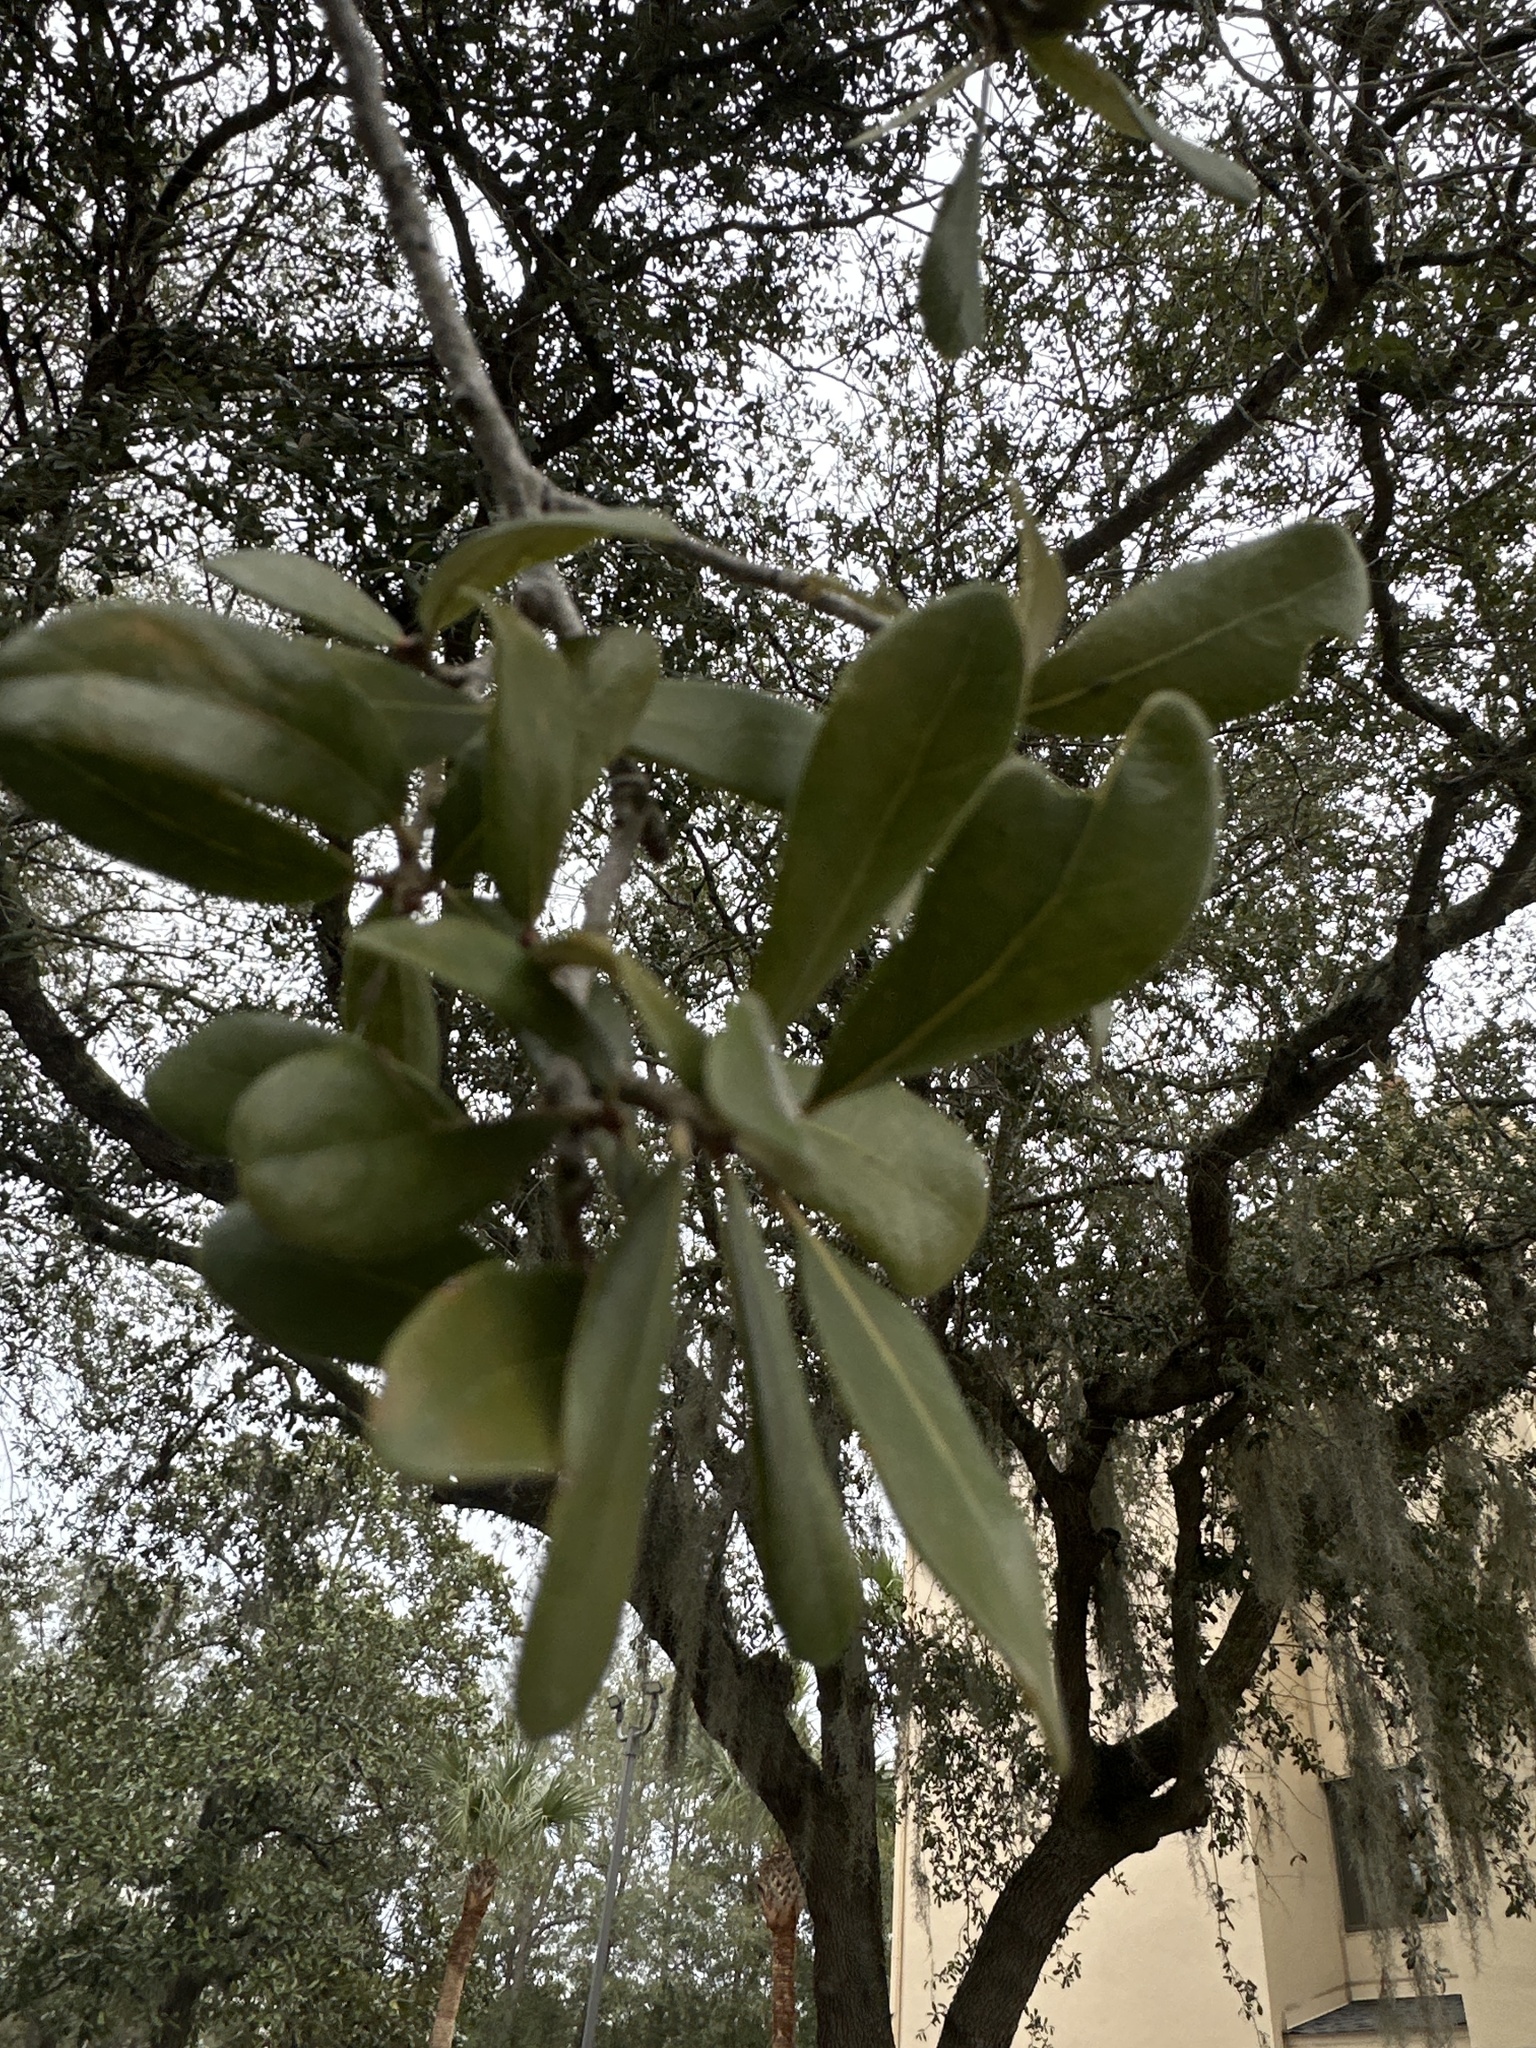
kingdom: Plantae
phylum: Tracheophyta
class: Magnoliopsida
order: Fagales
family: Fagaceae
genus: Quercus
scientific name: Quercus virginiana
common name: Southern live oak
